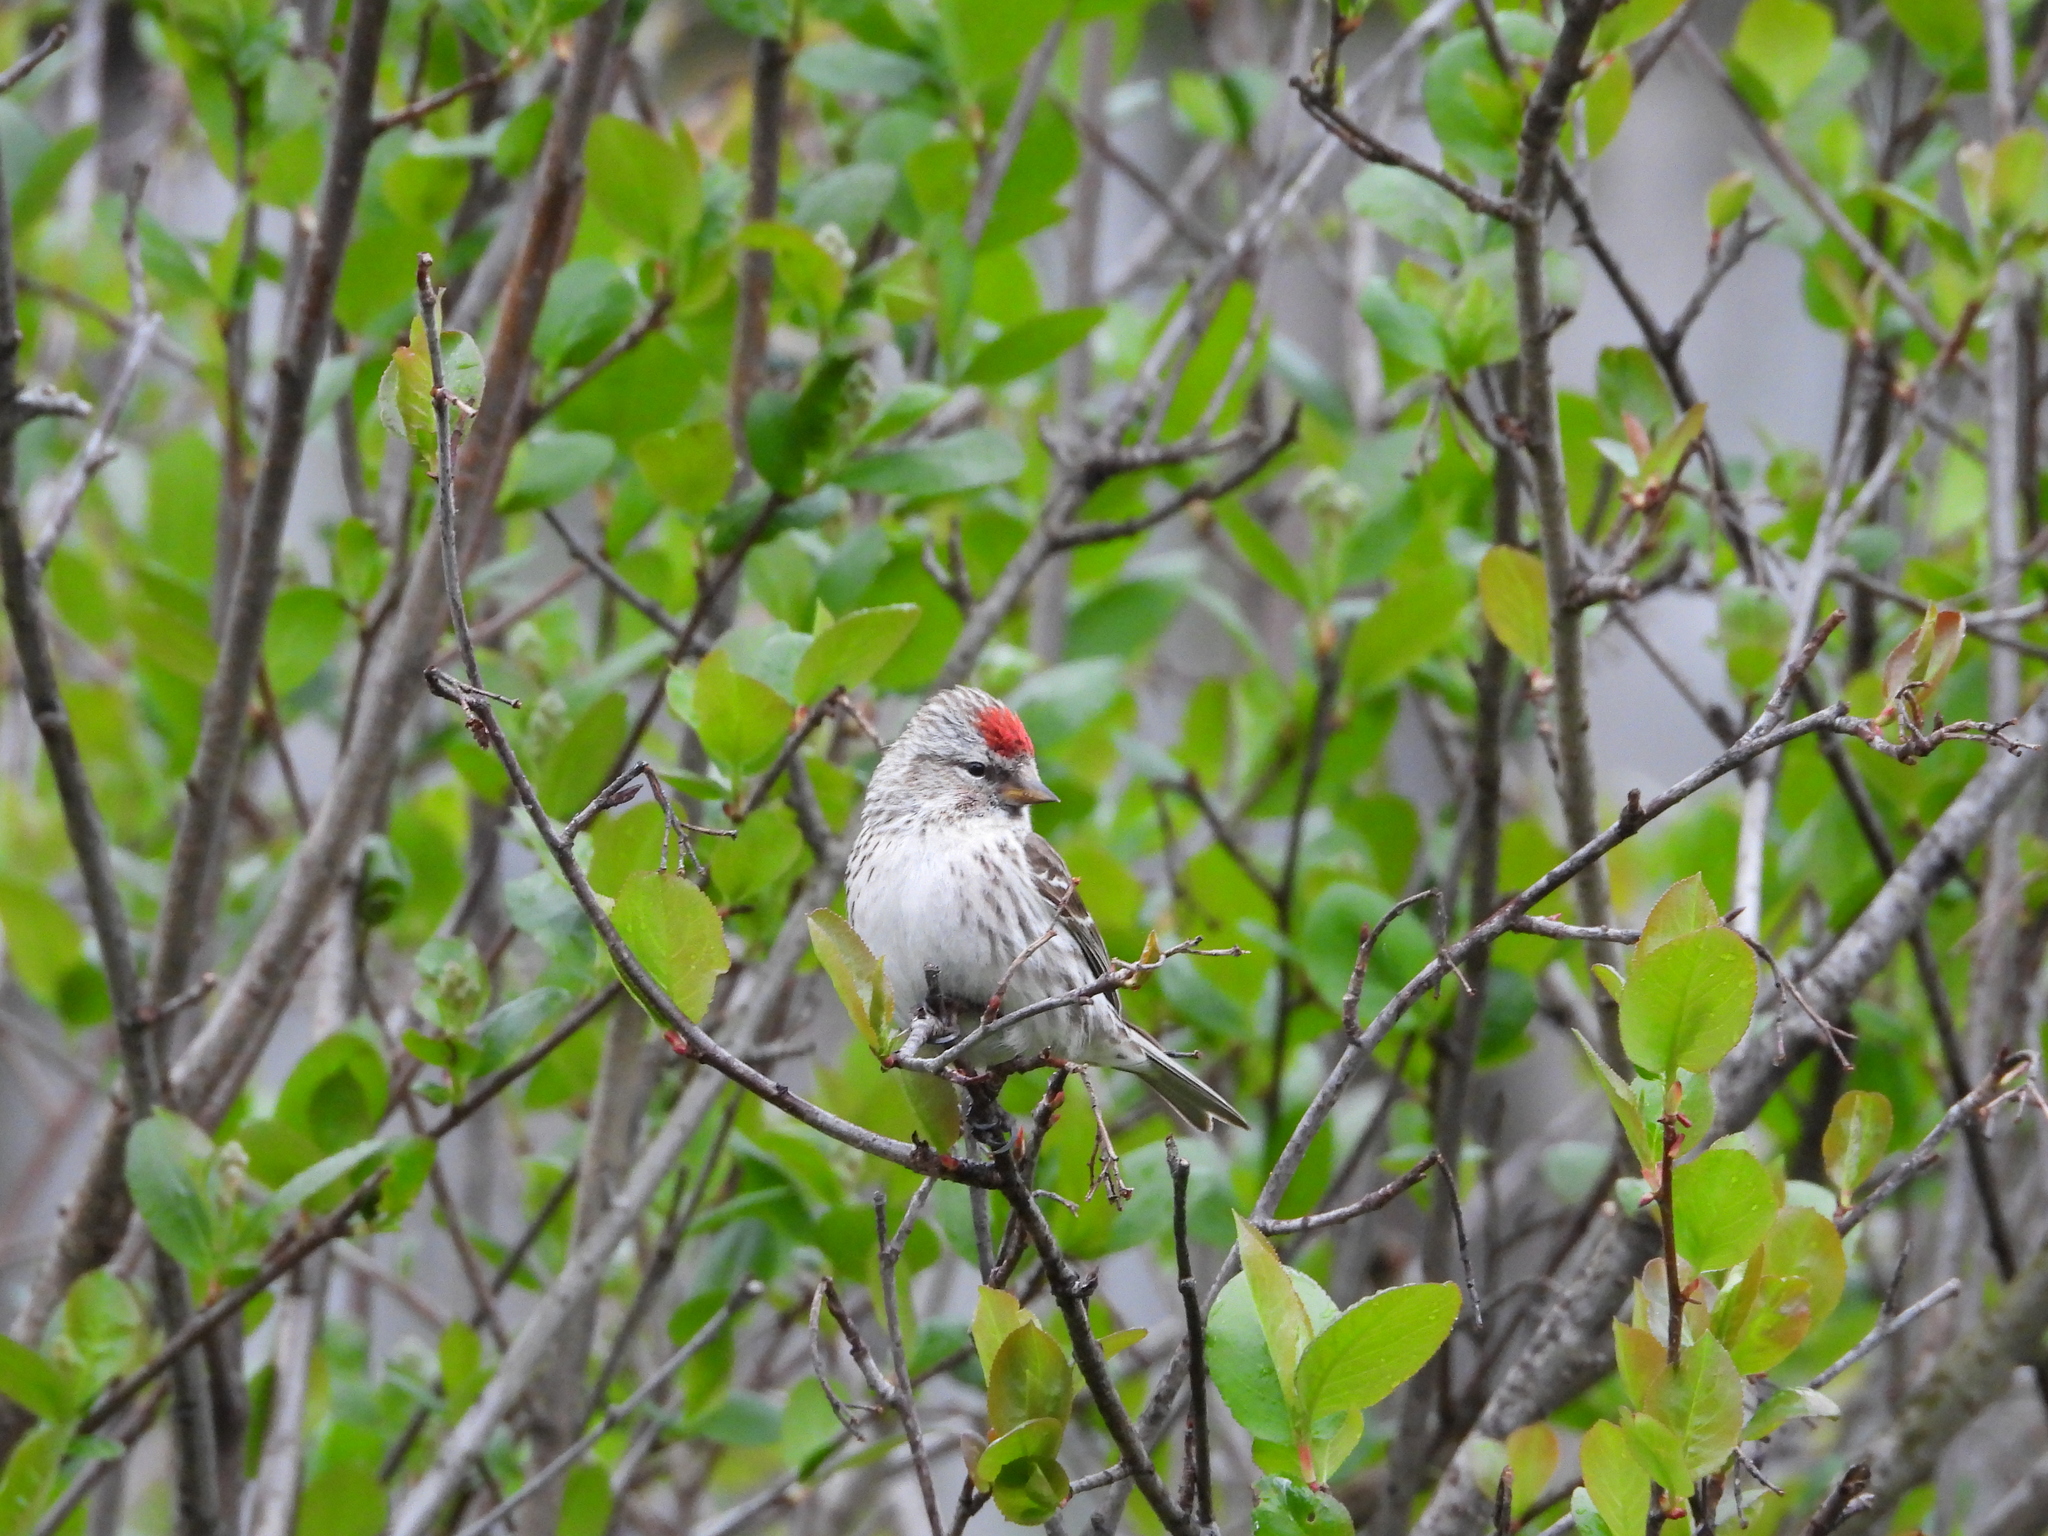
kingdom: Animalia
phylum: Chordata
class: Aves
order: Passeriformes
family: Fringillidae
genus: Acanthis
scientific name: Acanthis flammea
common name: Common redpoll
